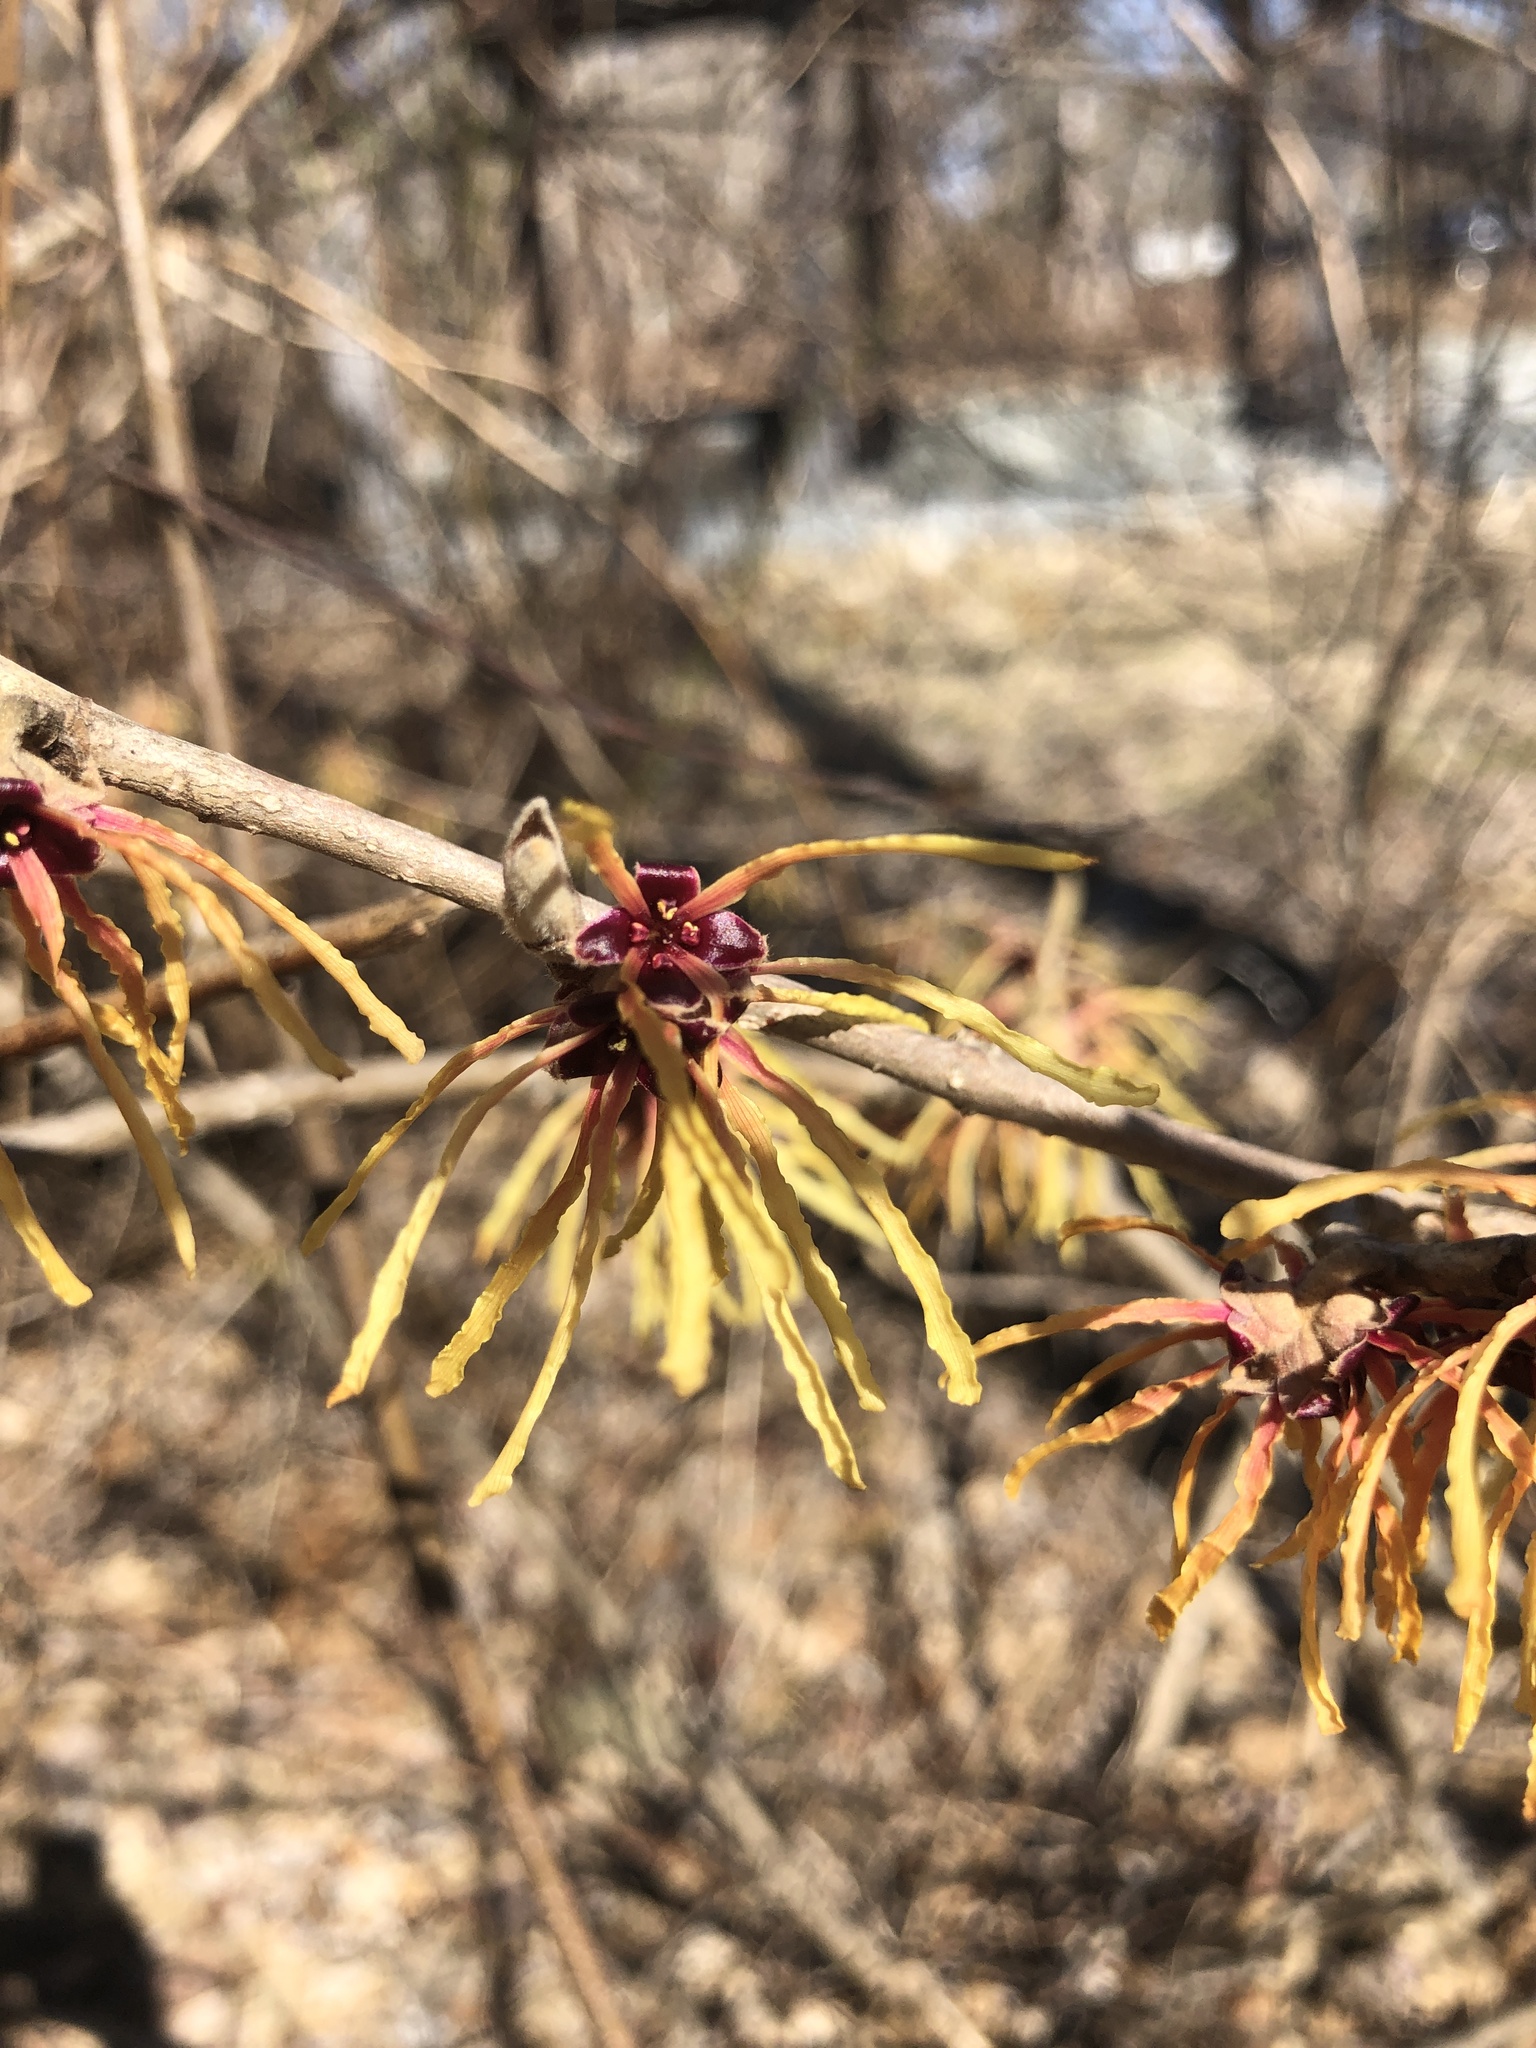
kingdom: Plantae
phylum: Tracheophyta
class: Magnoliopsida
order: Saxifragales
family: Hamamelidaceae
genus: Hamamelis
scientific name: Hamamelis vernalis
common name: Ozark witch-hazel
